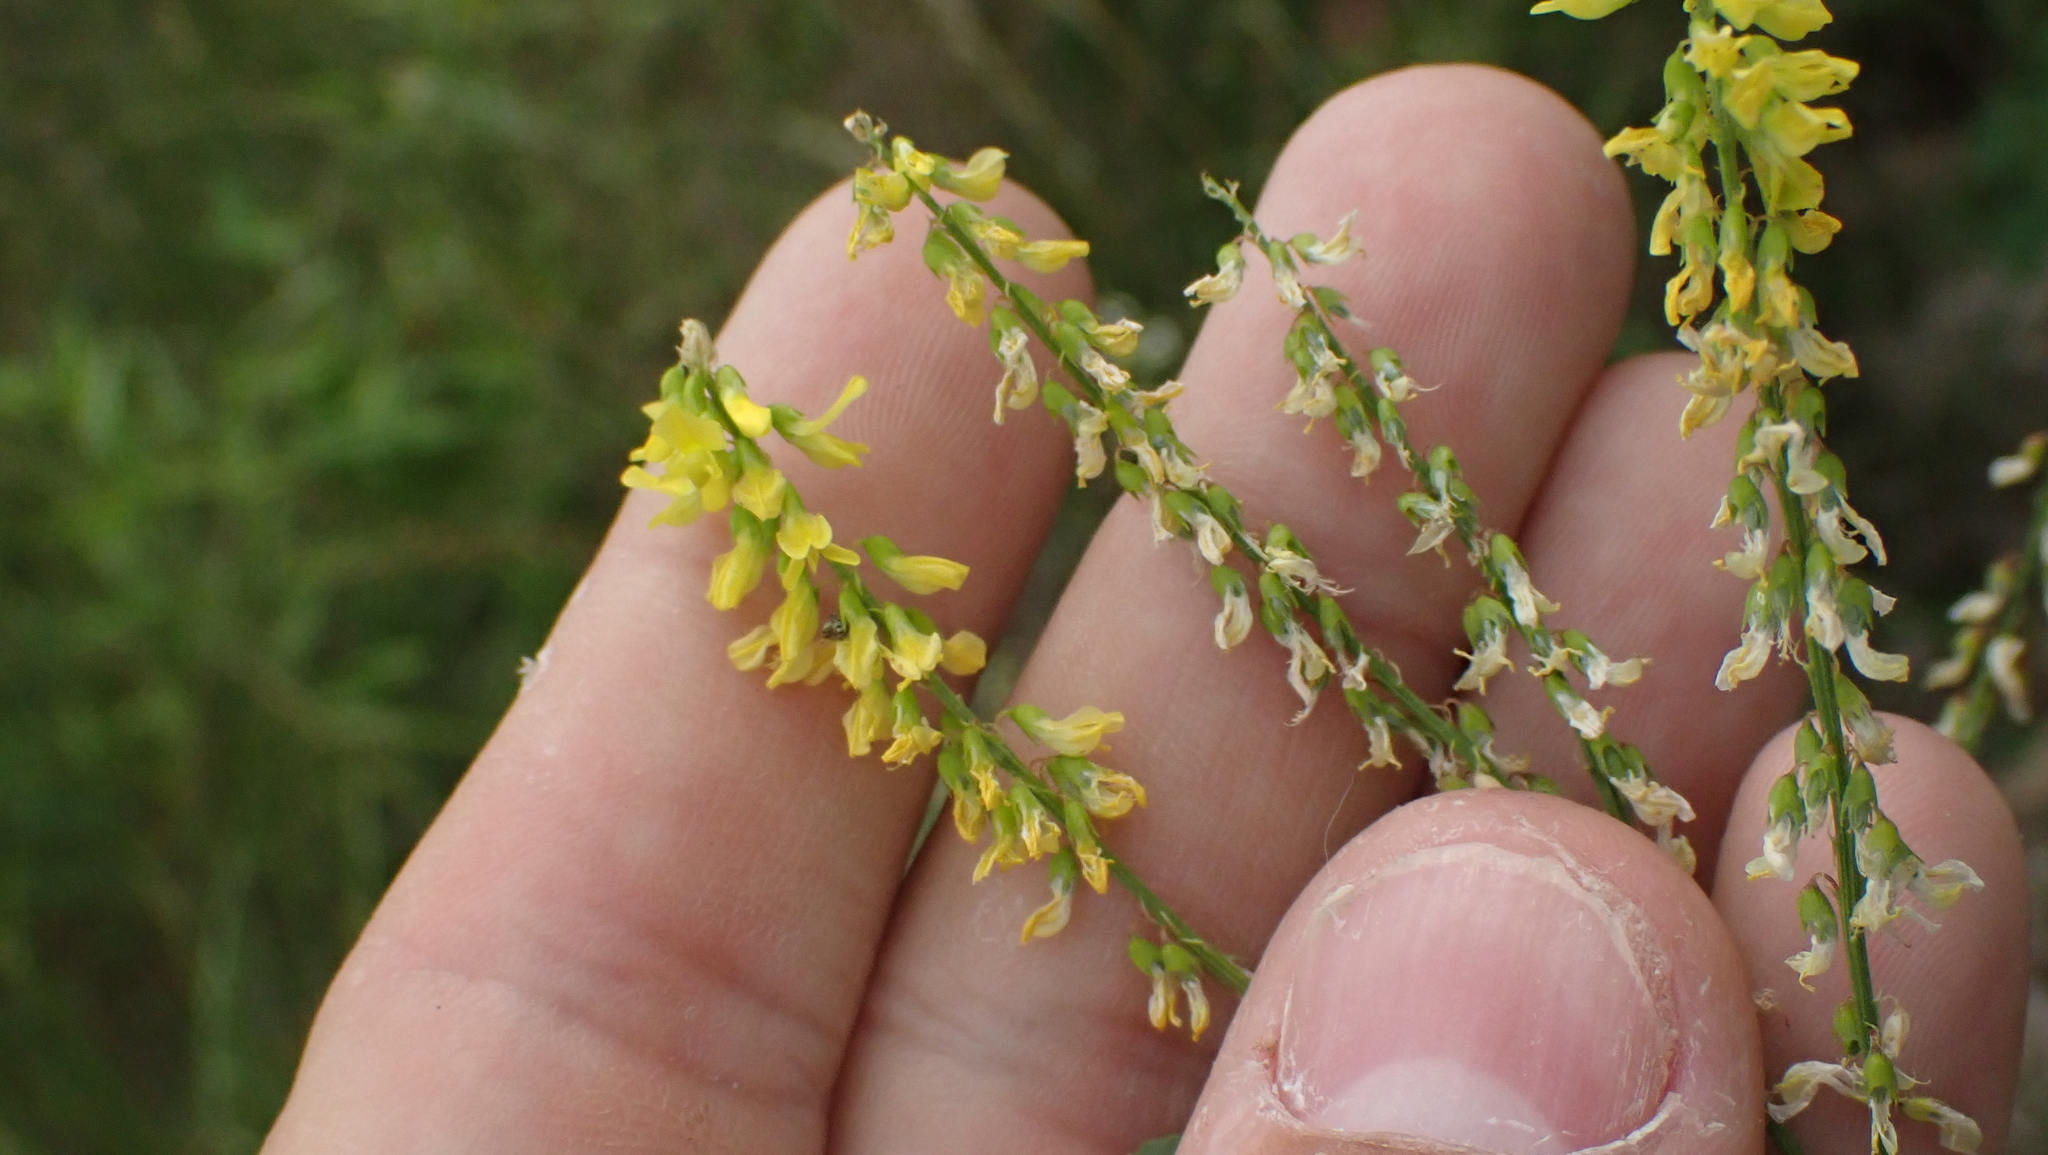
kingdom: Plantae
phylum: Tracheophyta
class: Magnoliopsida
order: Fabales
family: Fabaceae
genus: Melilotus
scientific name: Melilotus officinalis
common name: Sweetclover
